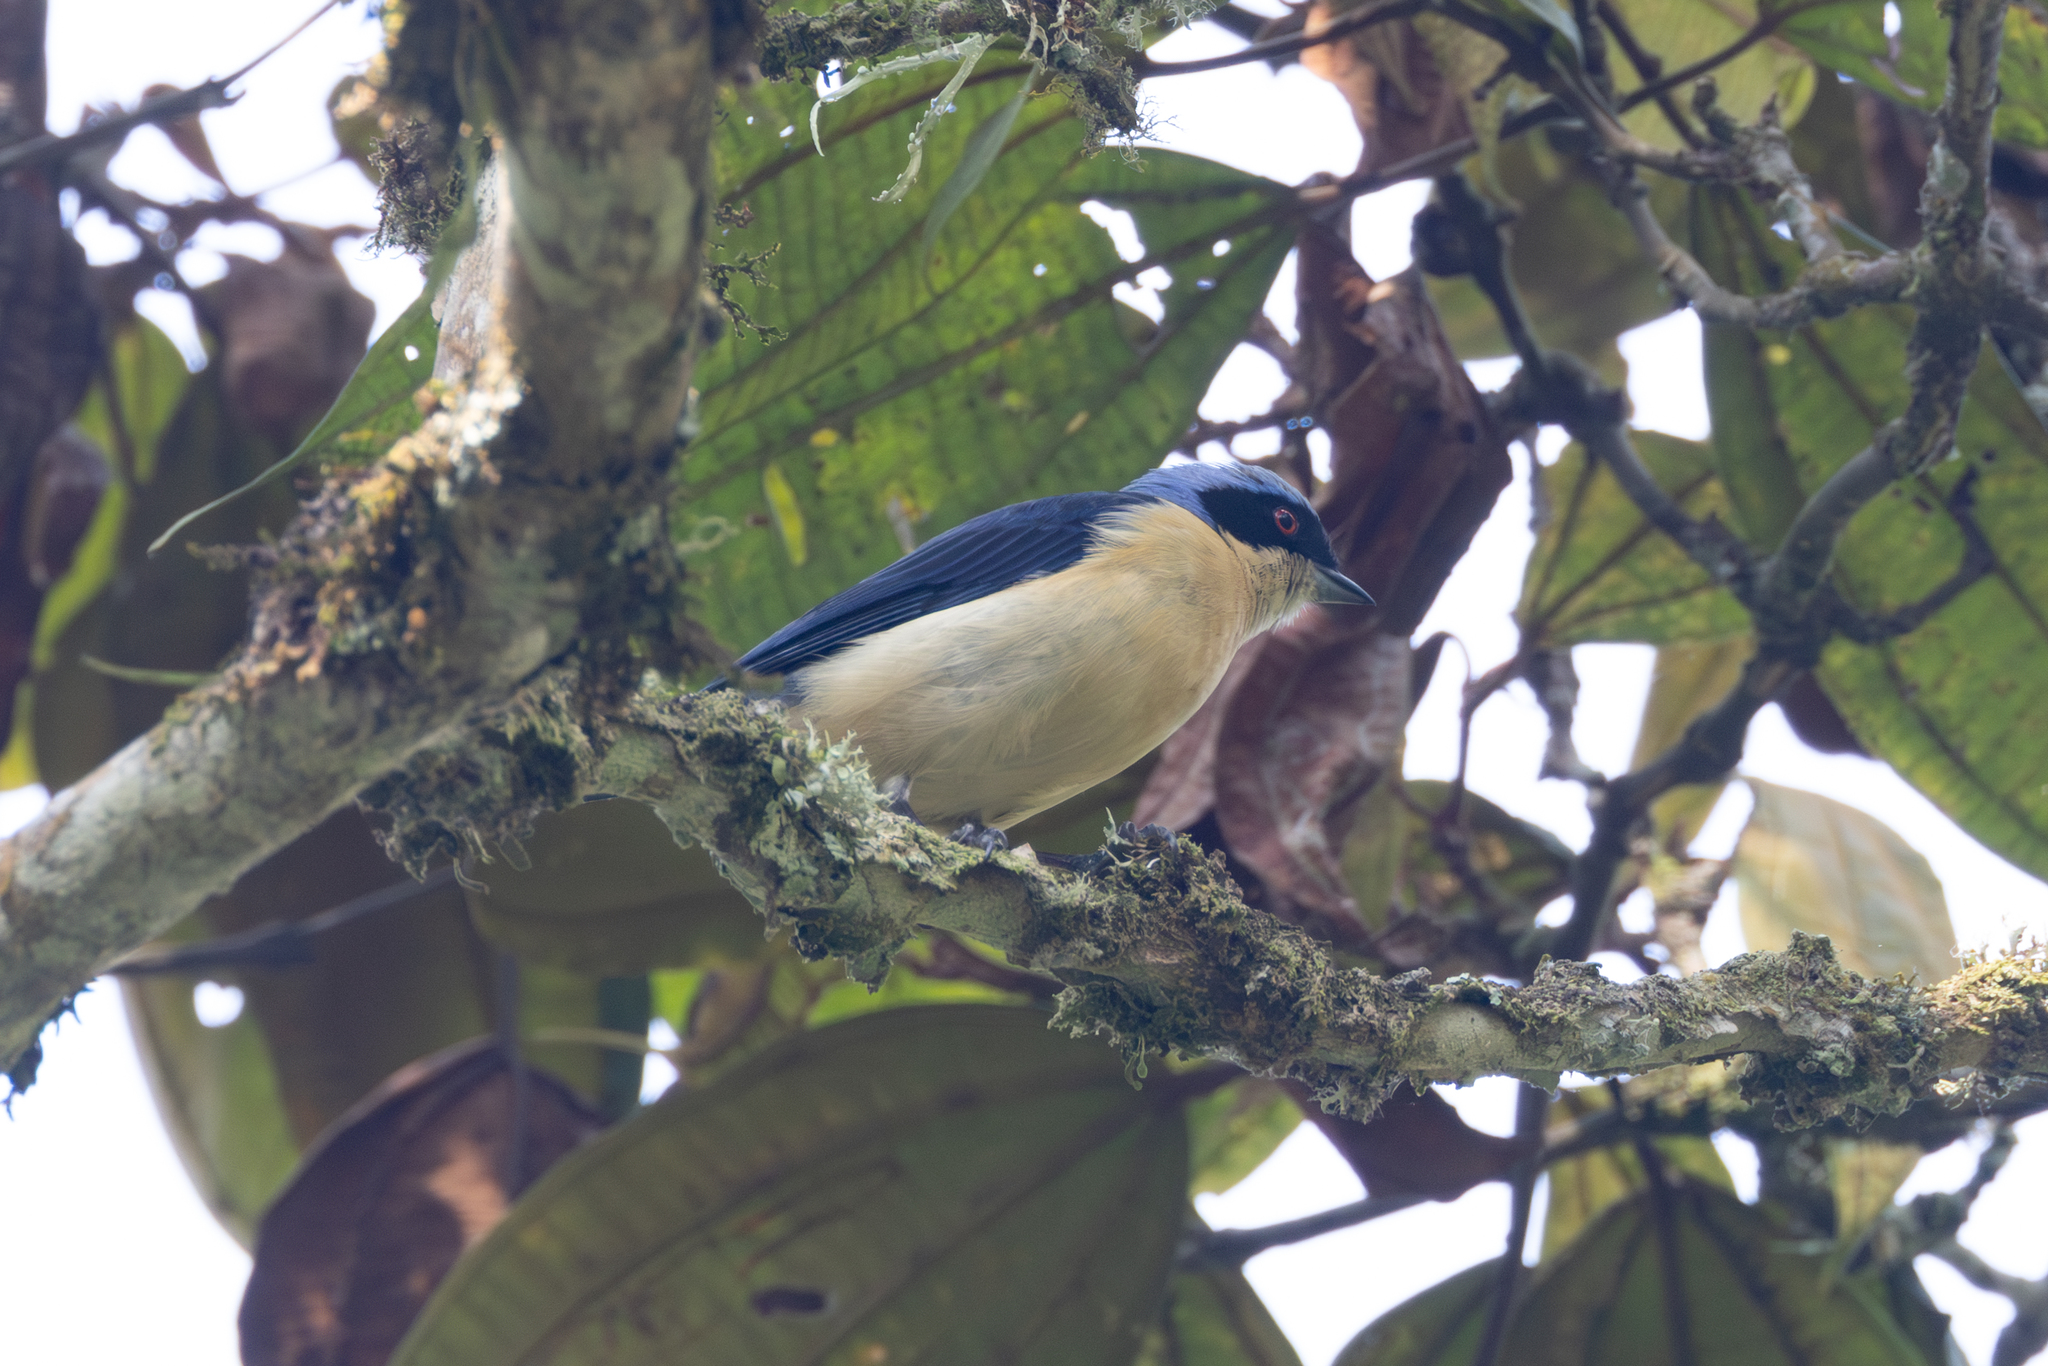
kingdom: Animalia
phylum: Chordata
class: Aves
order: Passeriformes
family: Thraupidae
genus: Pipraeidea
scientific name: Pipraeidea melanonota
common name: Fawn-breasted tanager
